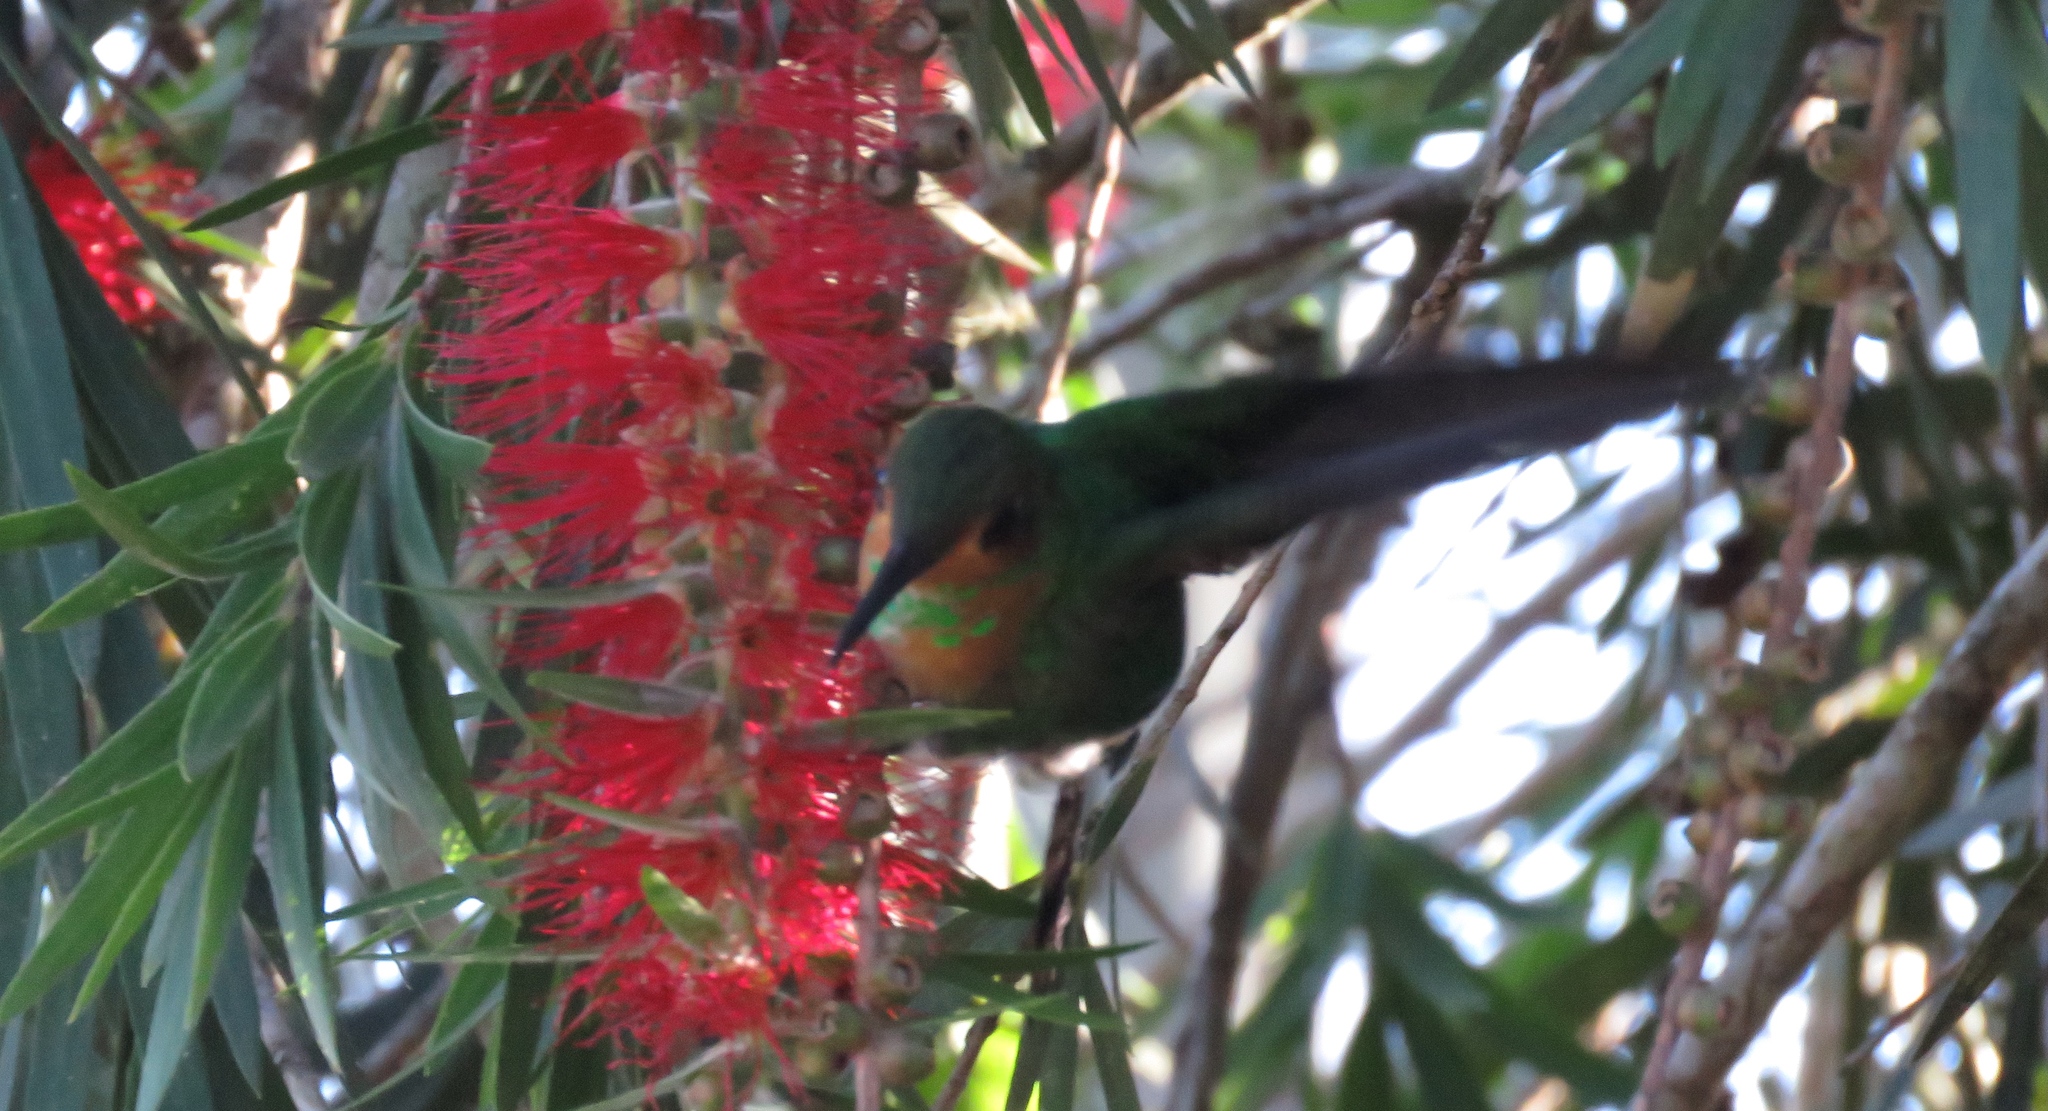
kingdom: Animalia
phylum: Chordata
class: Aves
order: Apodiformes
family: Trochilidae
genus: Heliodoxa
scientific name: Heliodoxa jacula
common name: Green-crowned brilliant
